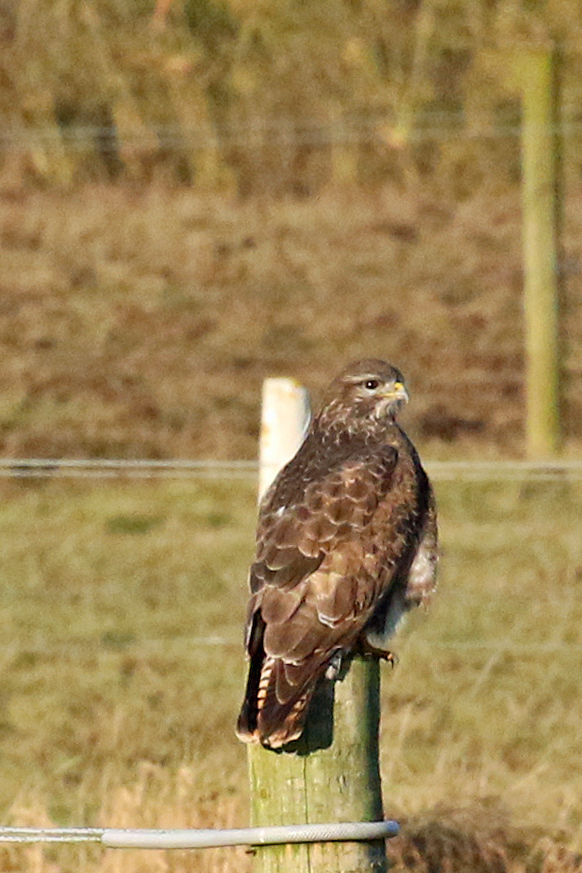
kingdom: Animalia
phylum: Chordata
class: Aves
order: Accipitriformes
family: Accipitridae
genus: Buteo
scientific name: Buteo buteo
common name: Common buzzard
